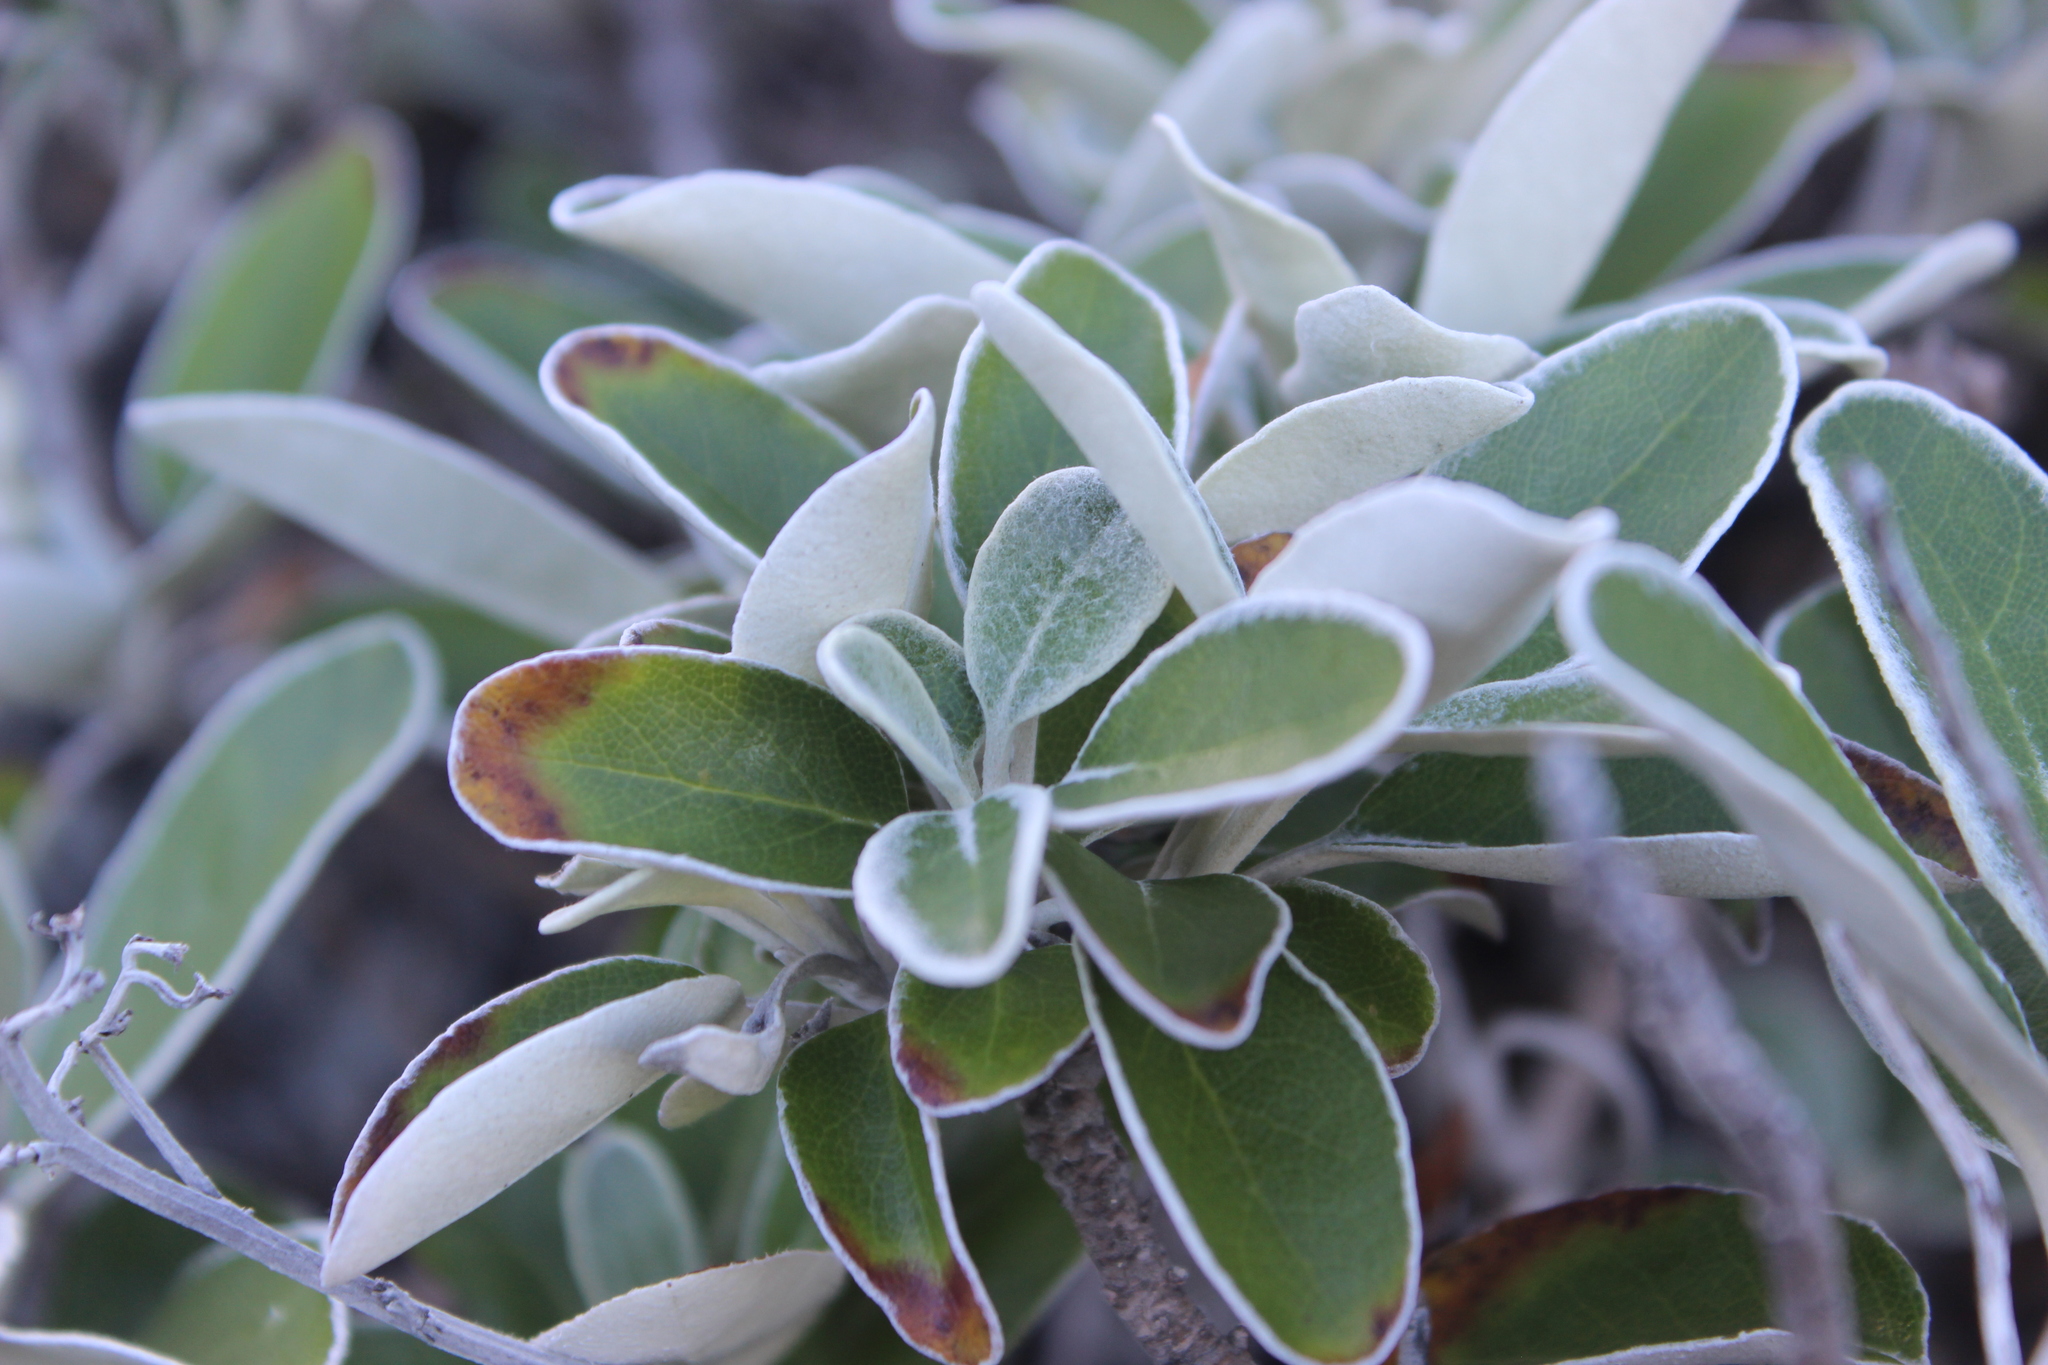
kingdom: Plantae
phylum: Tracheophyta
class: Magnoliopsida
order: Asterales
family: Asteraceae
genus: Brachyglottis
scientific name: Brachyglottis greyi
